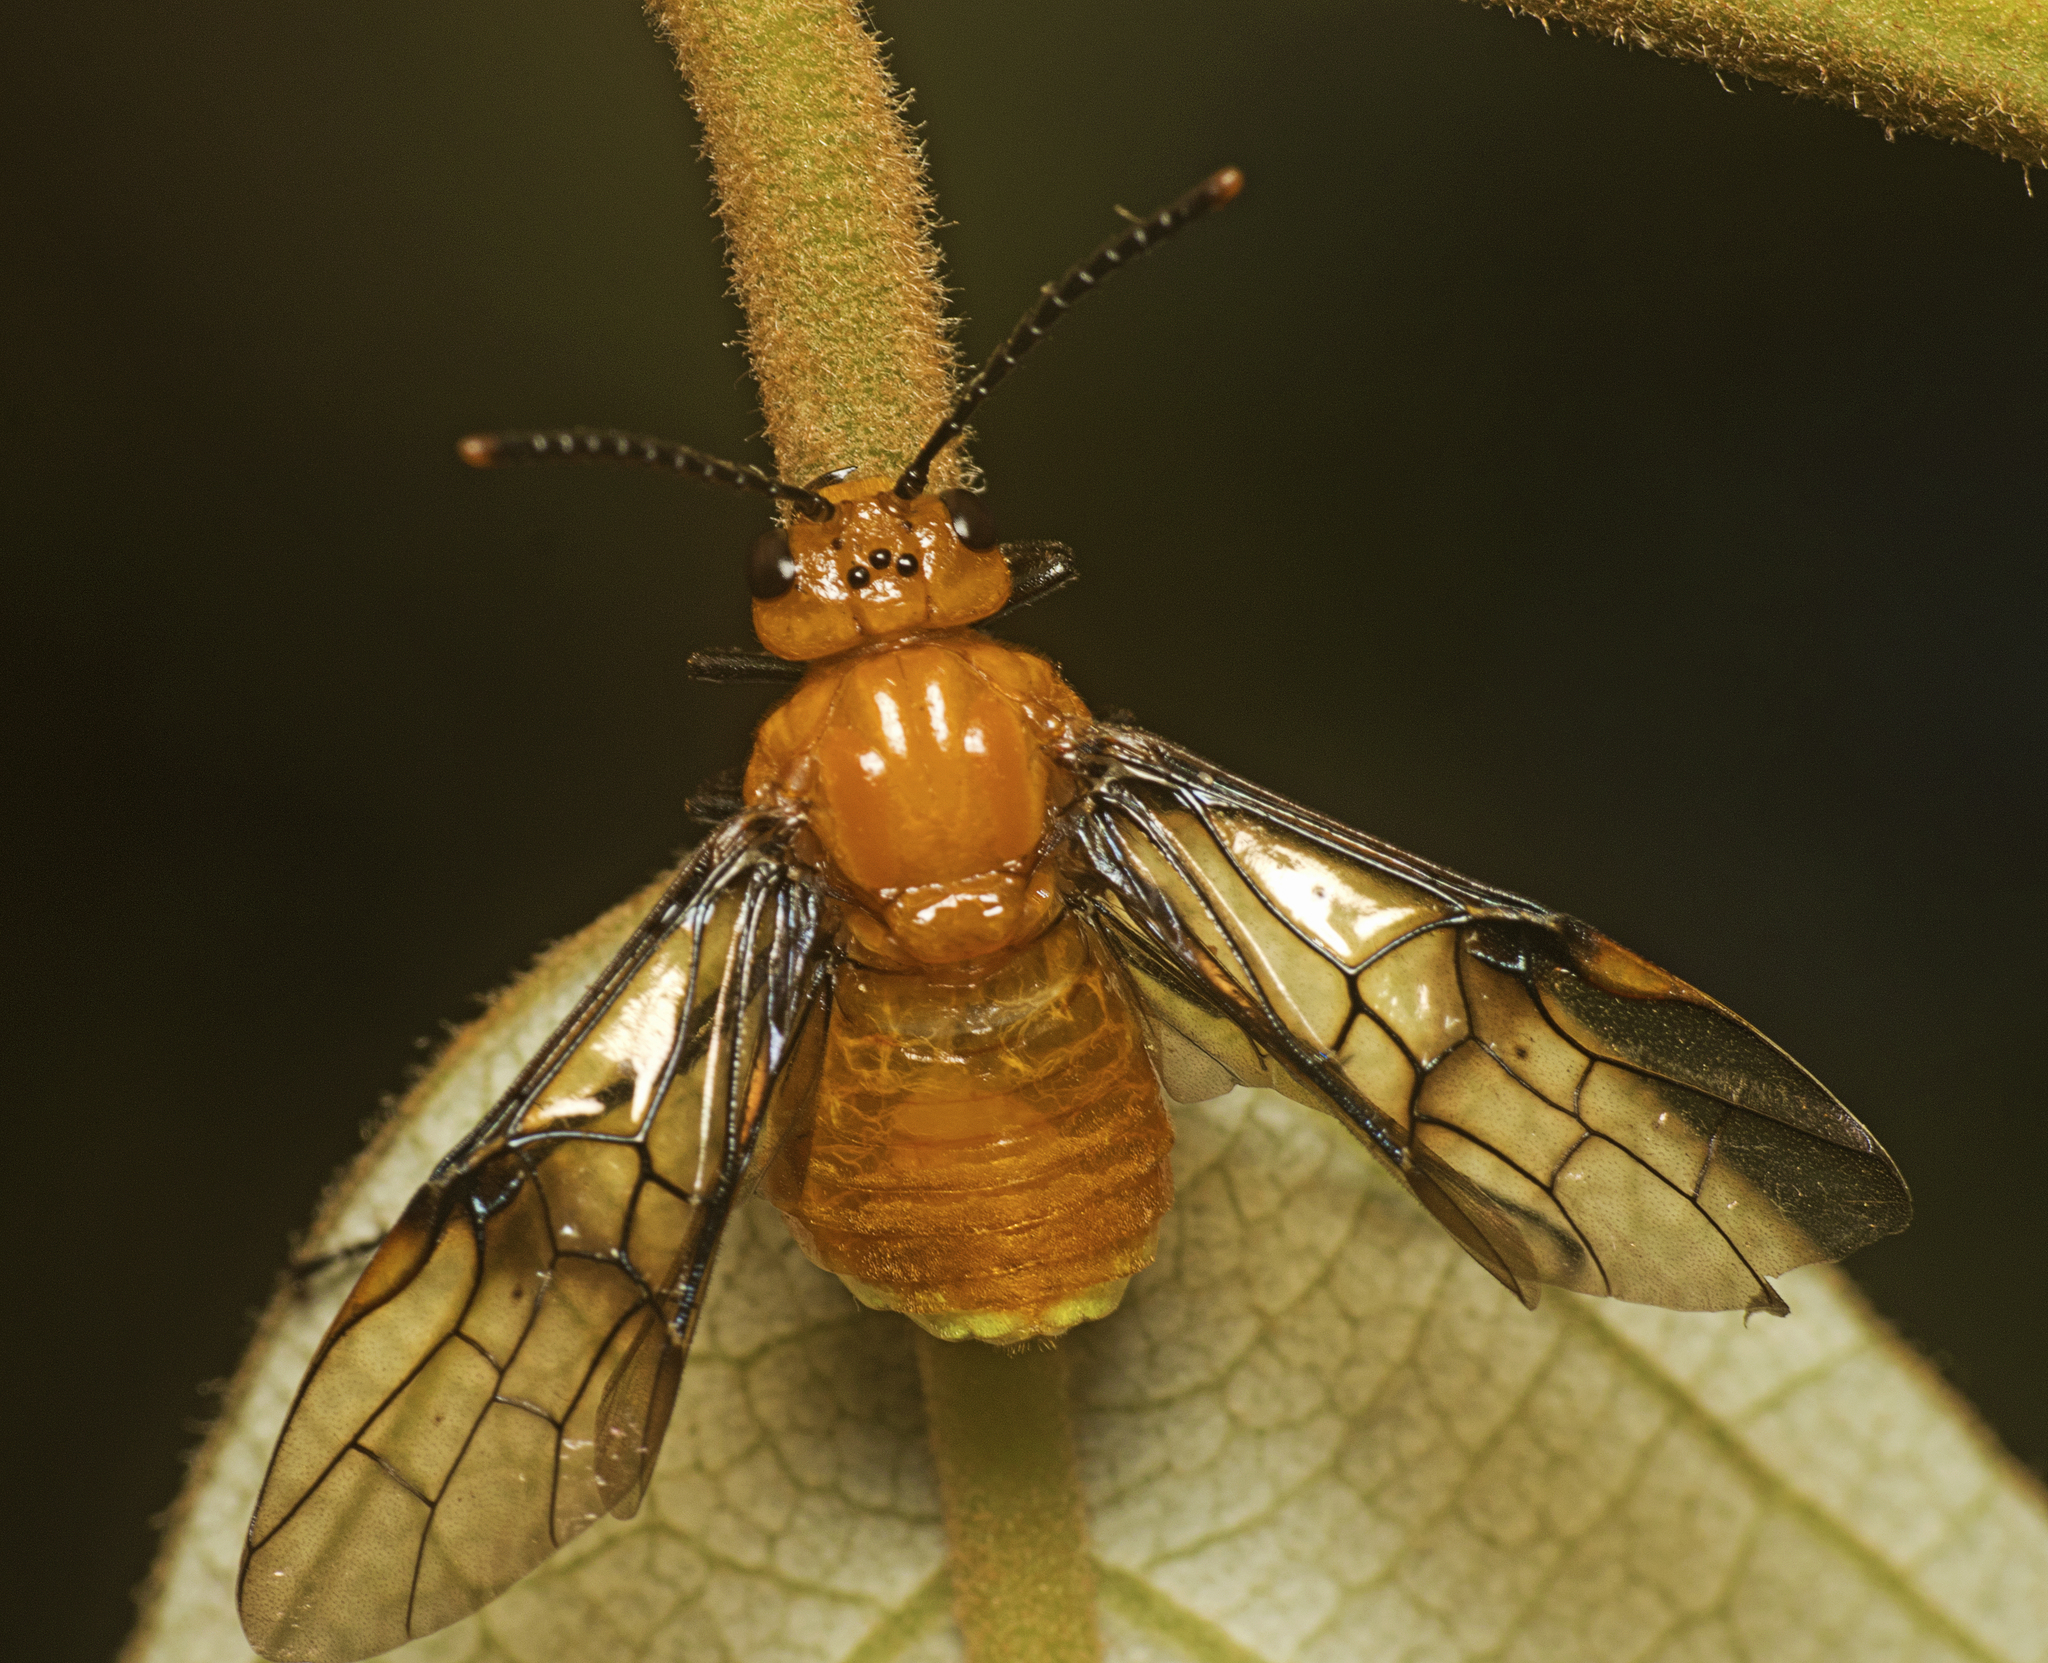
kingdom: Animalia
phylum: Arthropoda
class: Insecta
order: Hymenoptera
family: Pergidae
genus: Philomastix
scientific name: Philomastix
